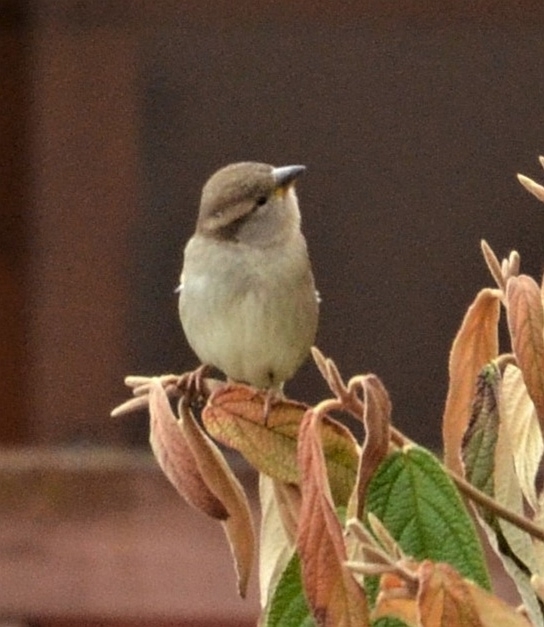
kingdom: Animalia
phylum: Chordata
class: Aves
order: Passeriformes
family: Passeridae
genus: Passer
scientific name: Passer domesticus
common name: House sparrow
